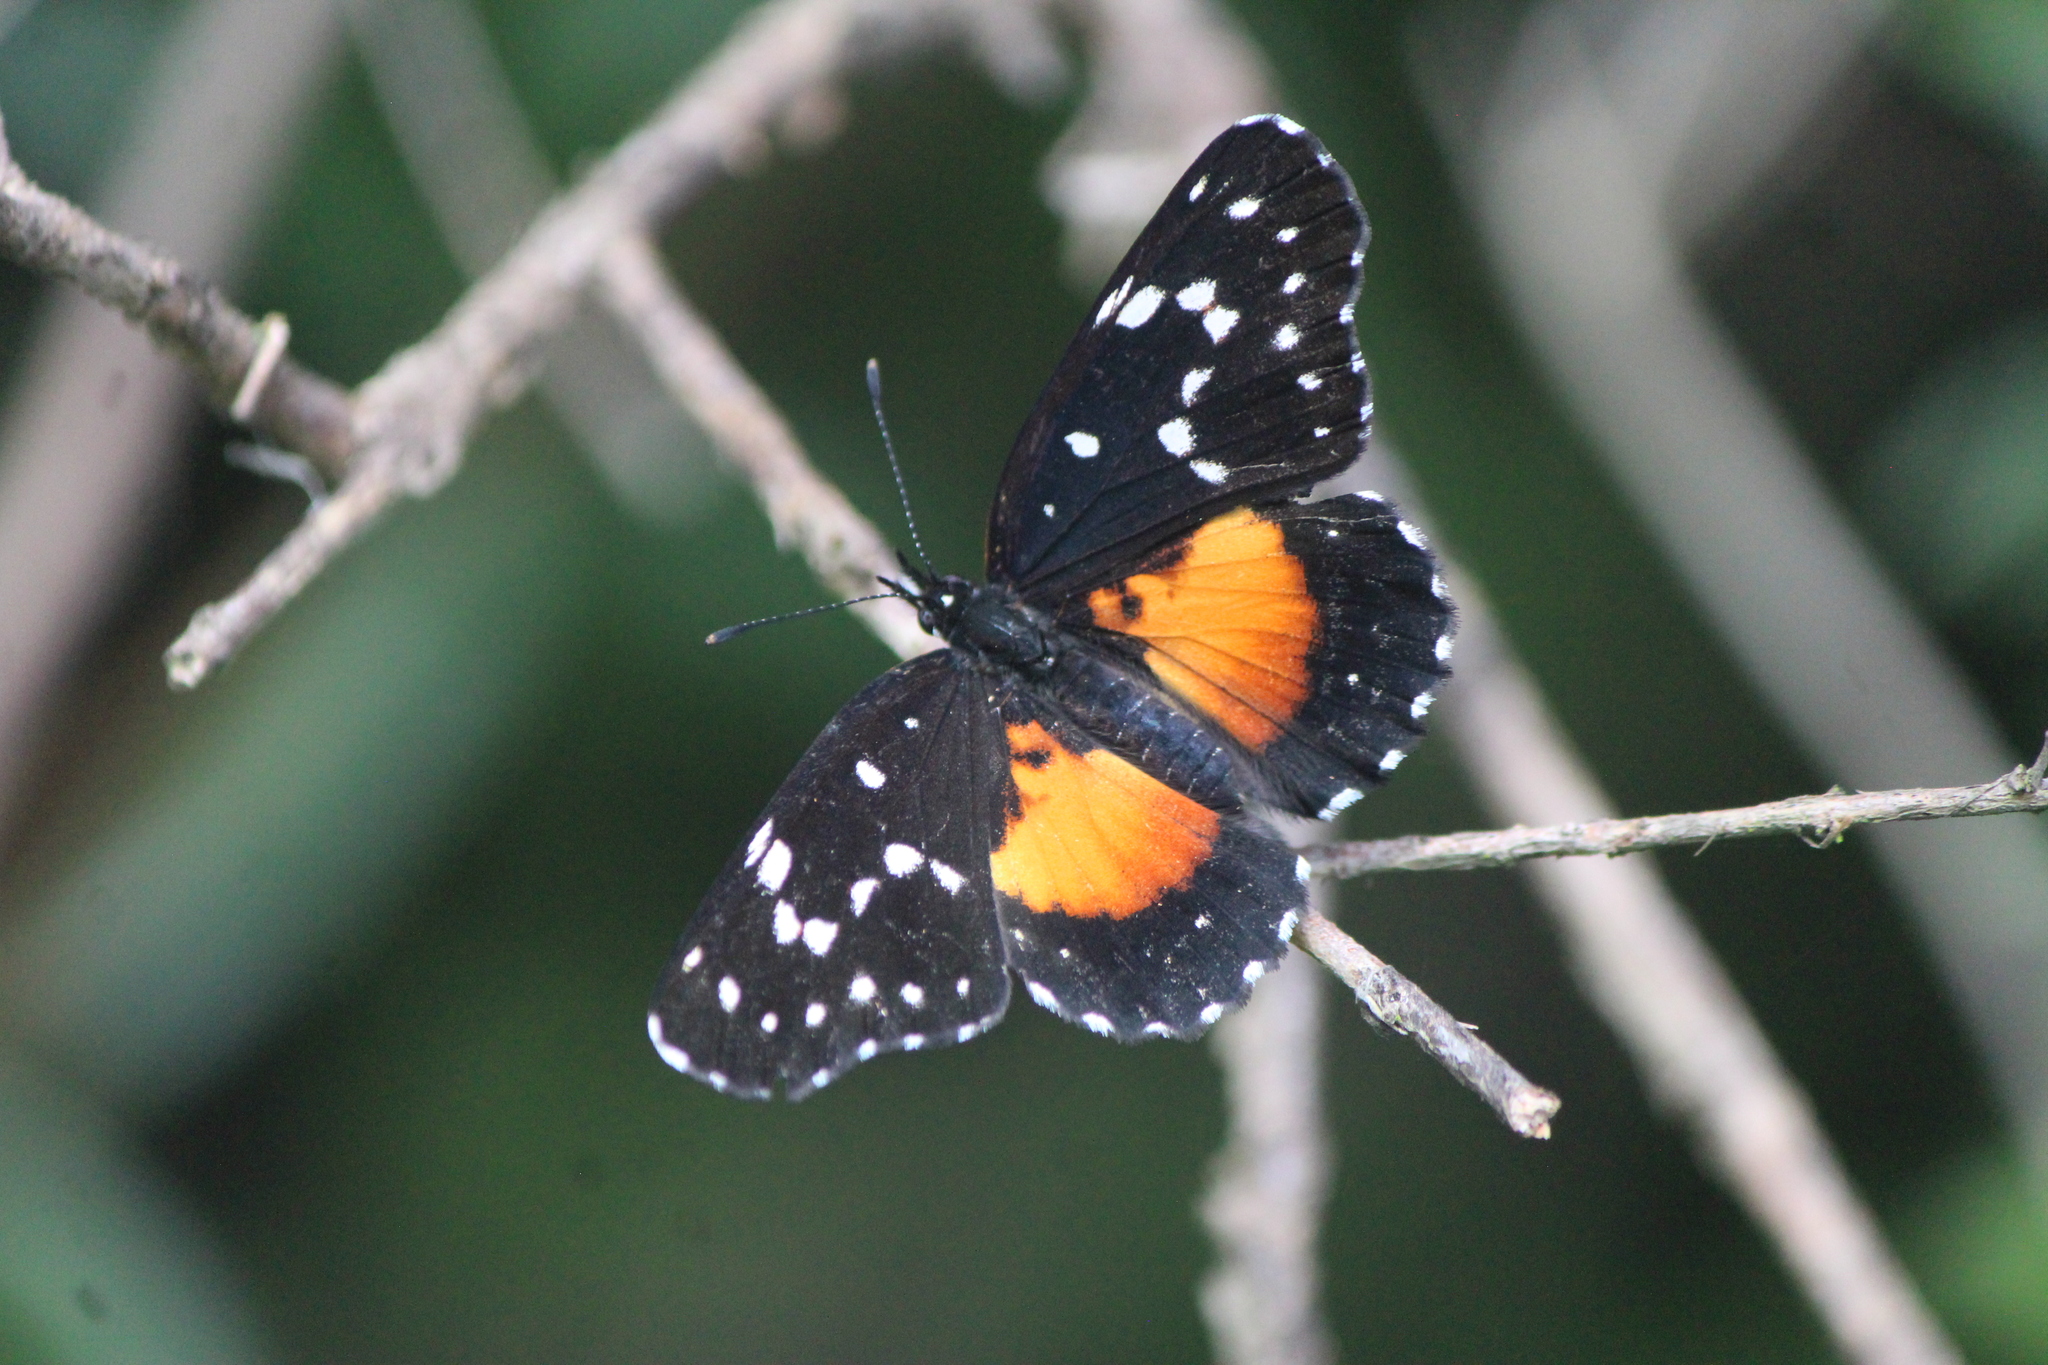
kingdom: Animalia
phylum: Arthropoda
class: Insecta
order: Lepidoptera
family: Nymphalidae
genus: Chlosyne
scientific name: Chlosyne rosita
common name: Rosita patch
